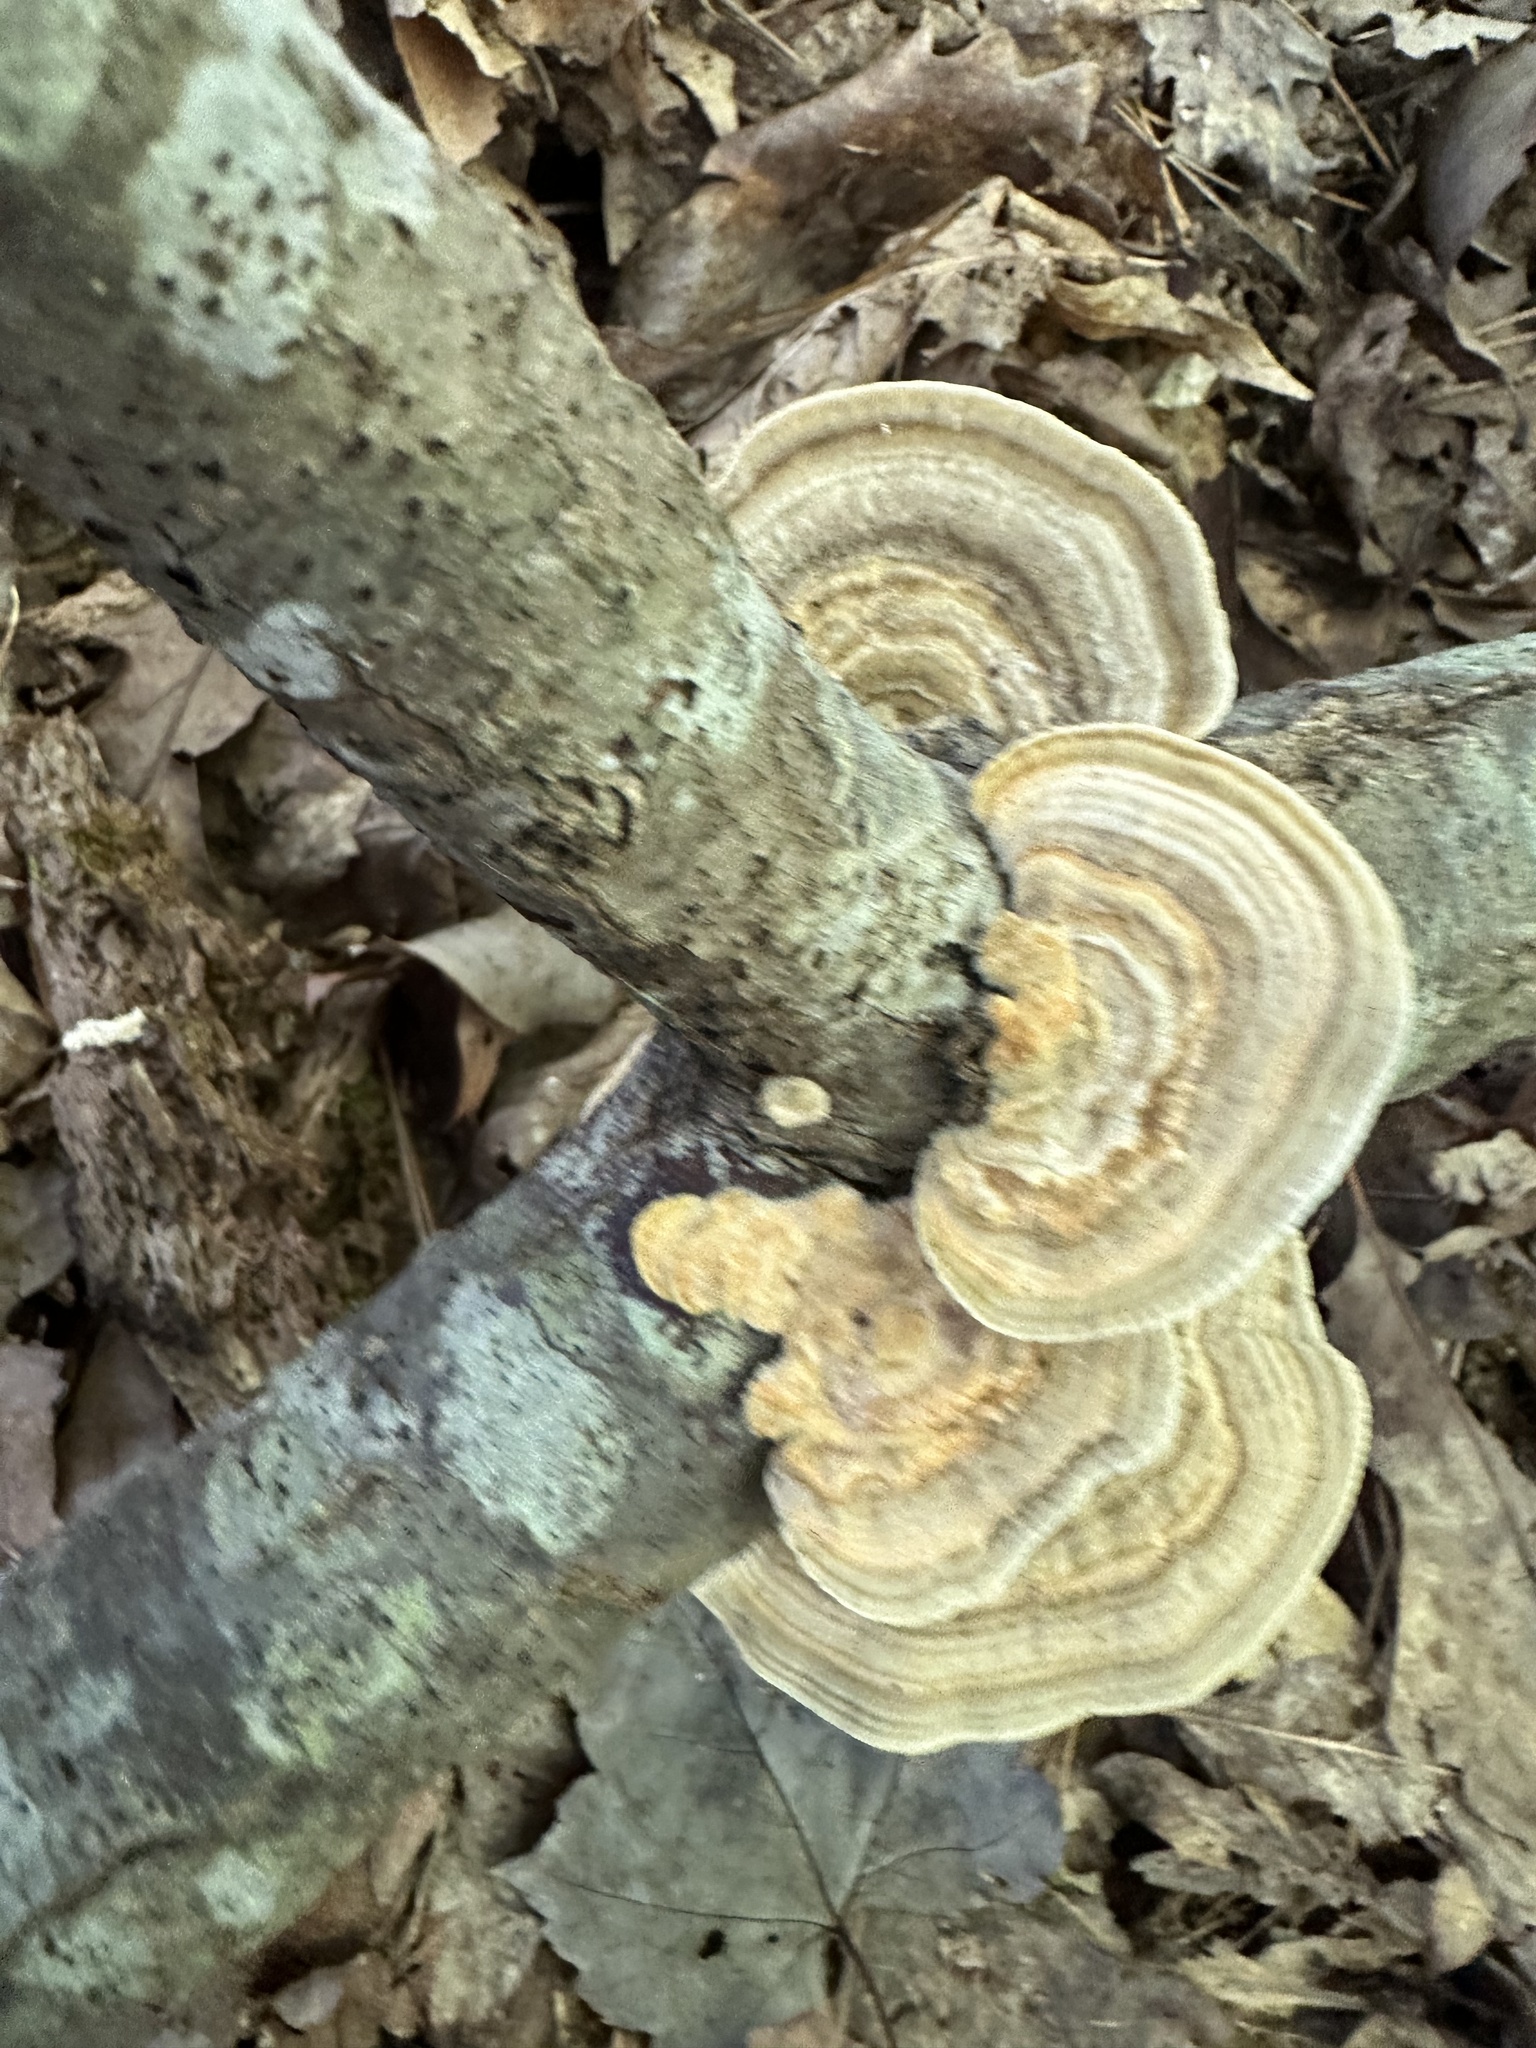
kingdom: Fungi
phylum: Basidiomycota
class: Agaricomycetes
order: Polyporales
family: Polyporaceae
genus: Lenzites
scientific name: Lenzites betulinus
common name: Birch mazegill
